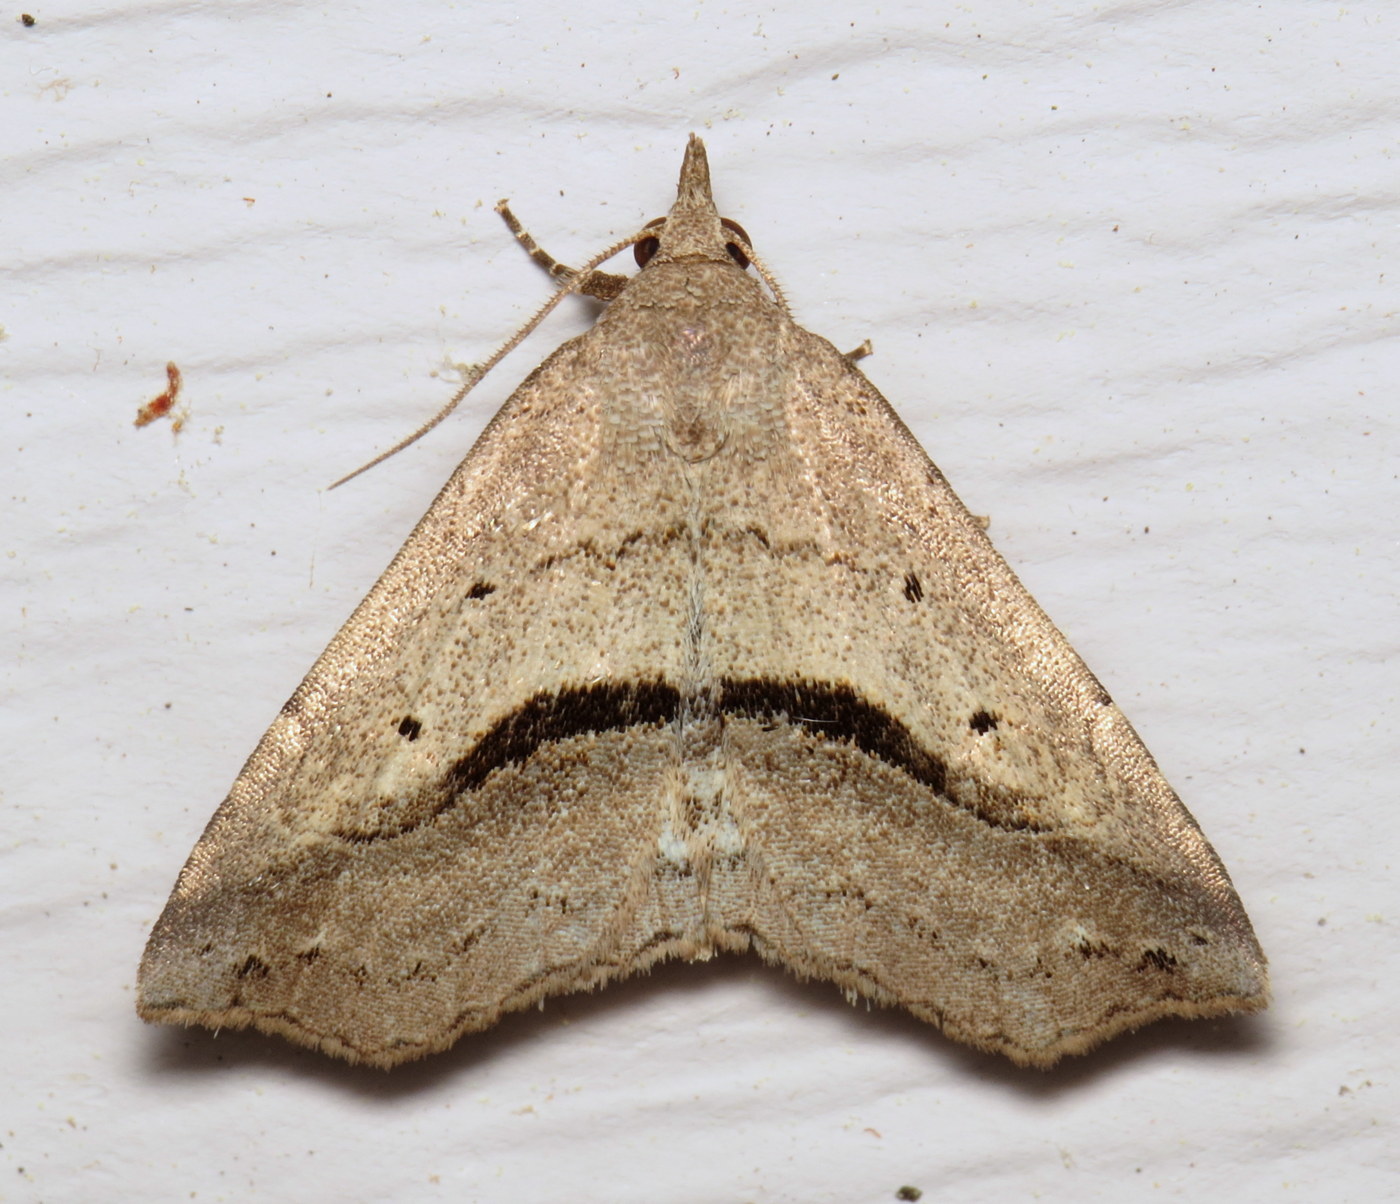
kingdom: Animalia
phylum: Arthropoda
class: Insecta
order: Lepidoptera
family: Erebidae
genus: Spargaloma
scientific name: Spargaloma perditalis
